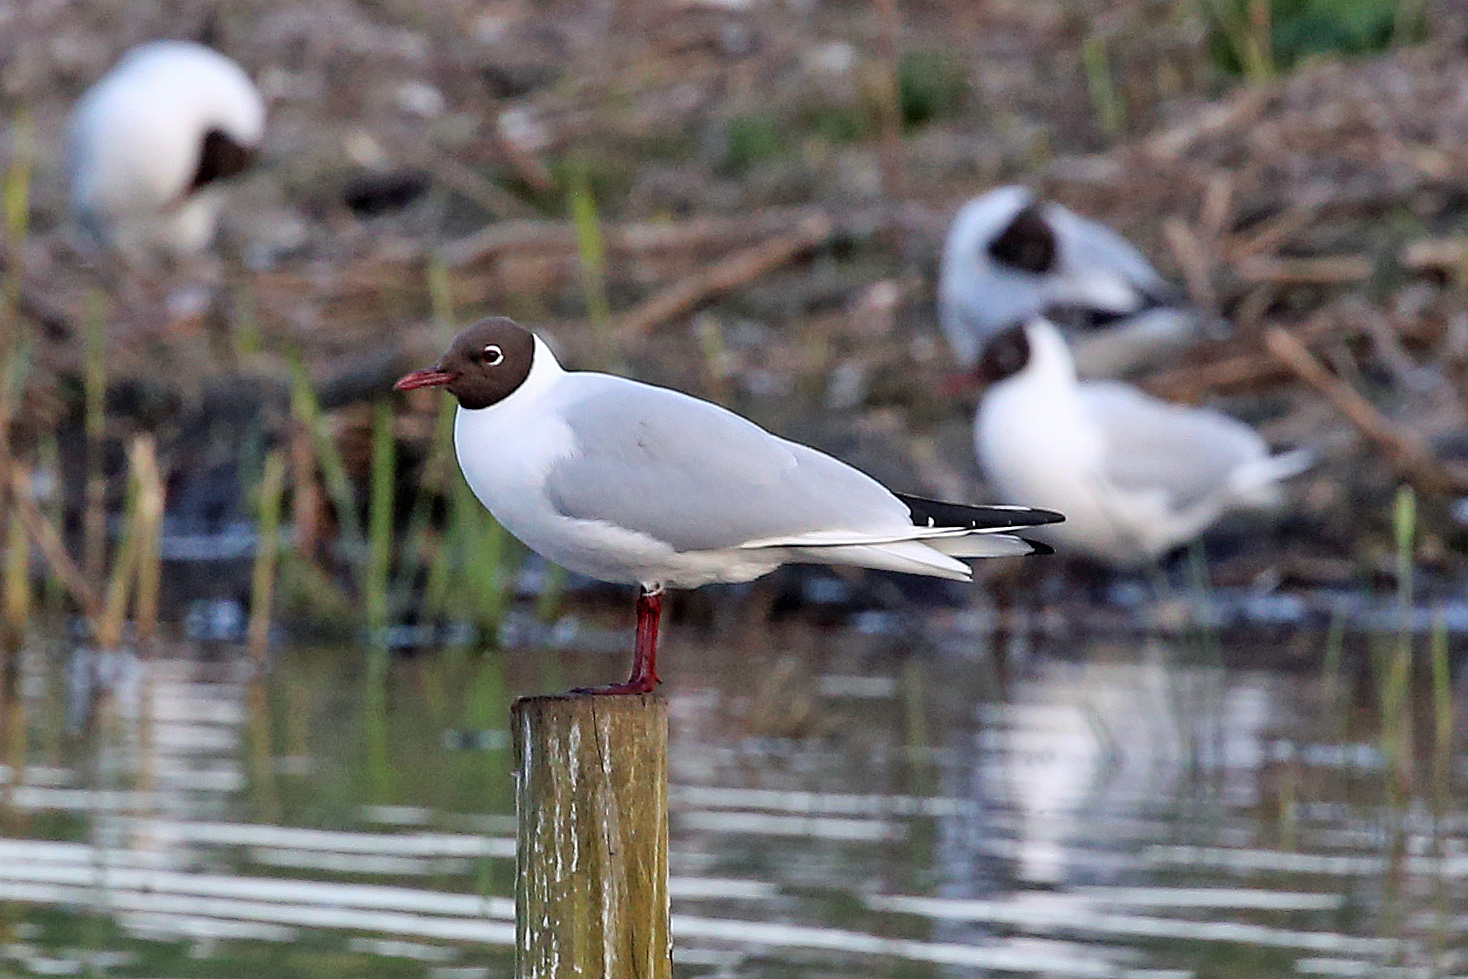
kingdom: Animalia
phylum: Chordata
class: Aves
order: Charadriiformes
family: Laridae
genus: Chroicocephalus
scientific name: Chroicocephalus ridibundus
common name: Black-headed gull
